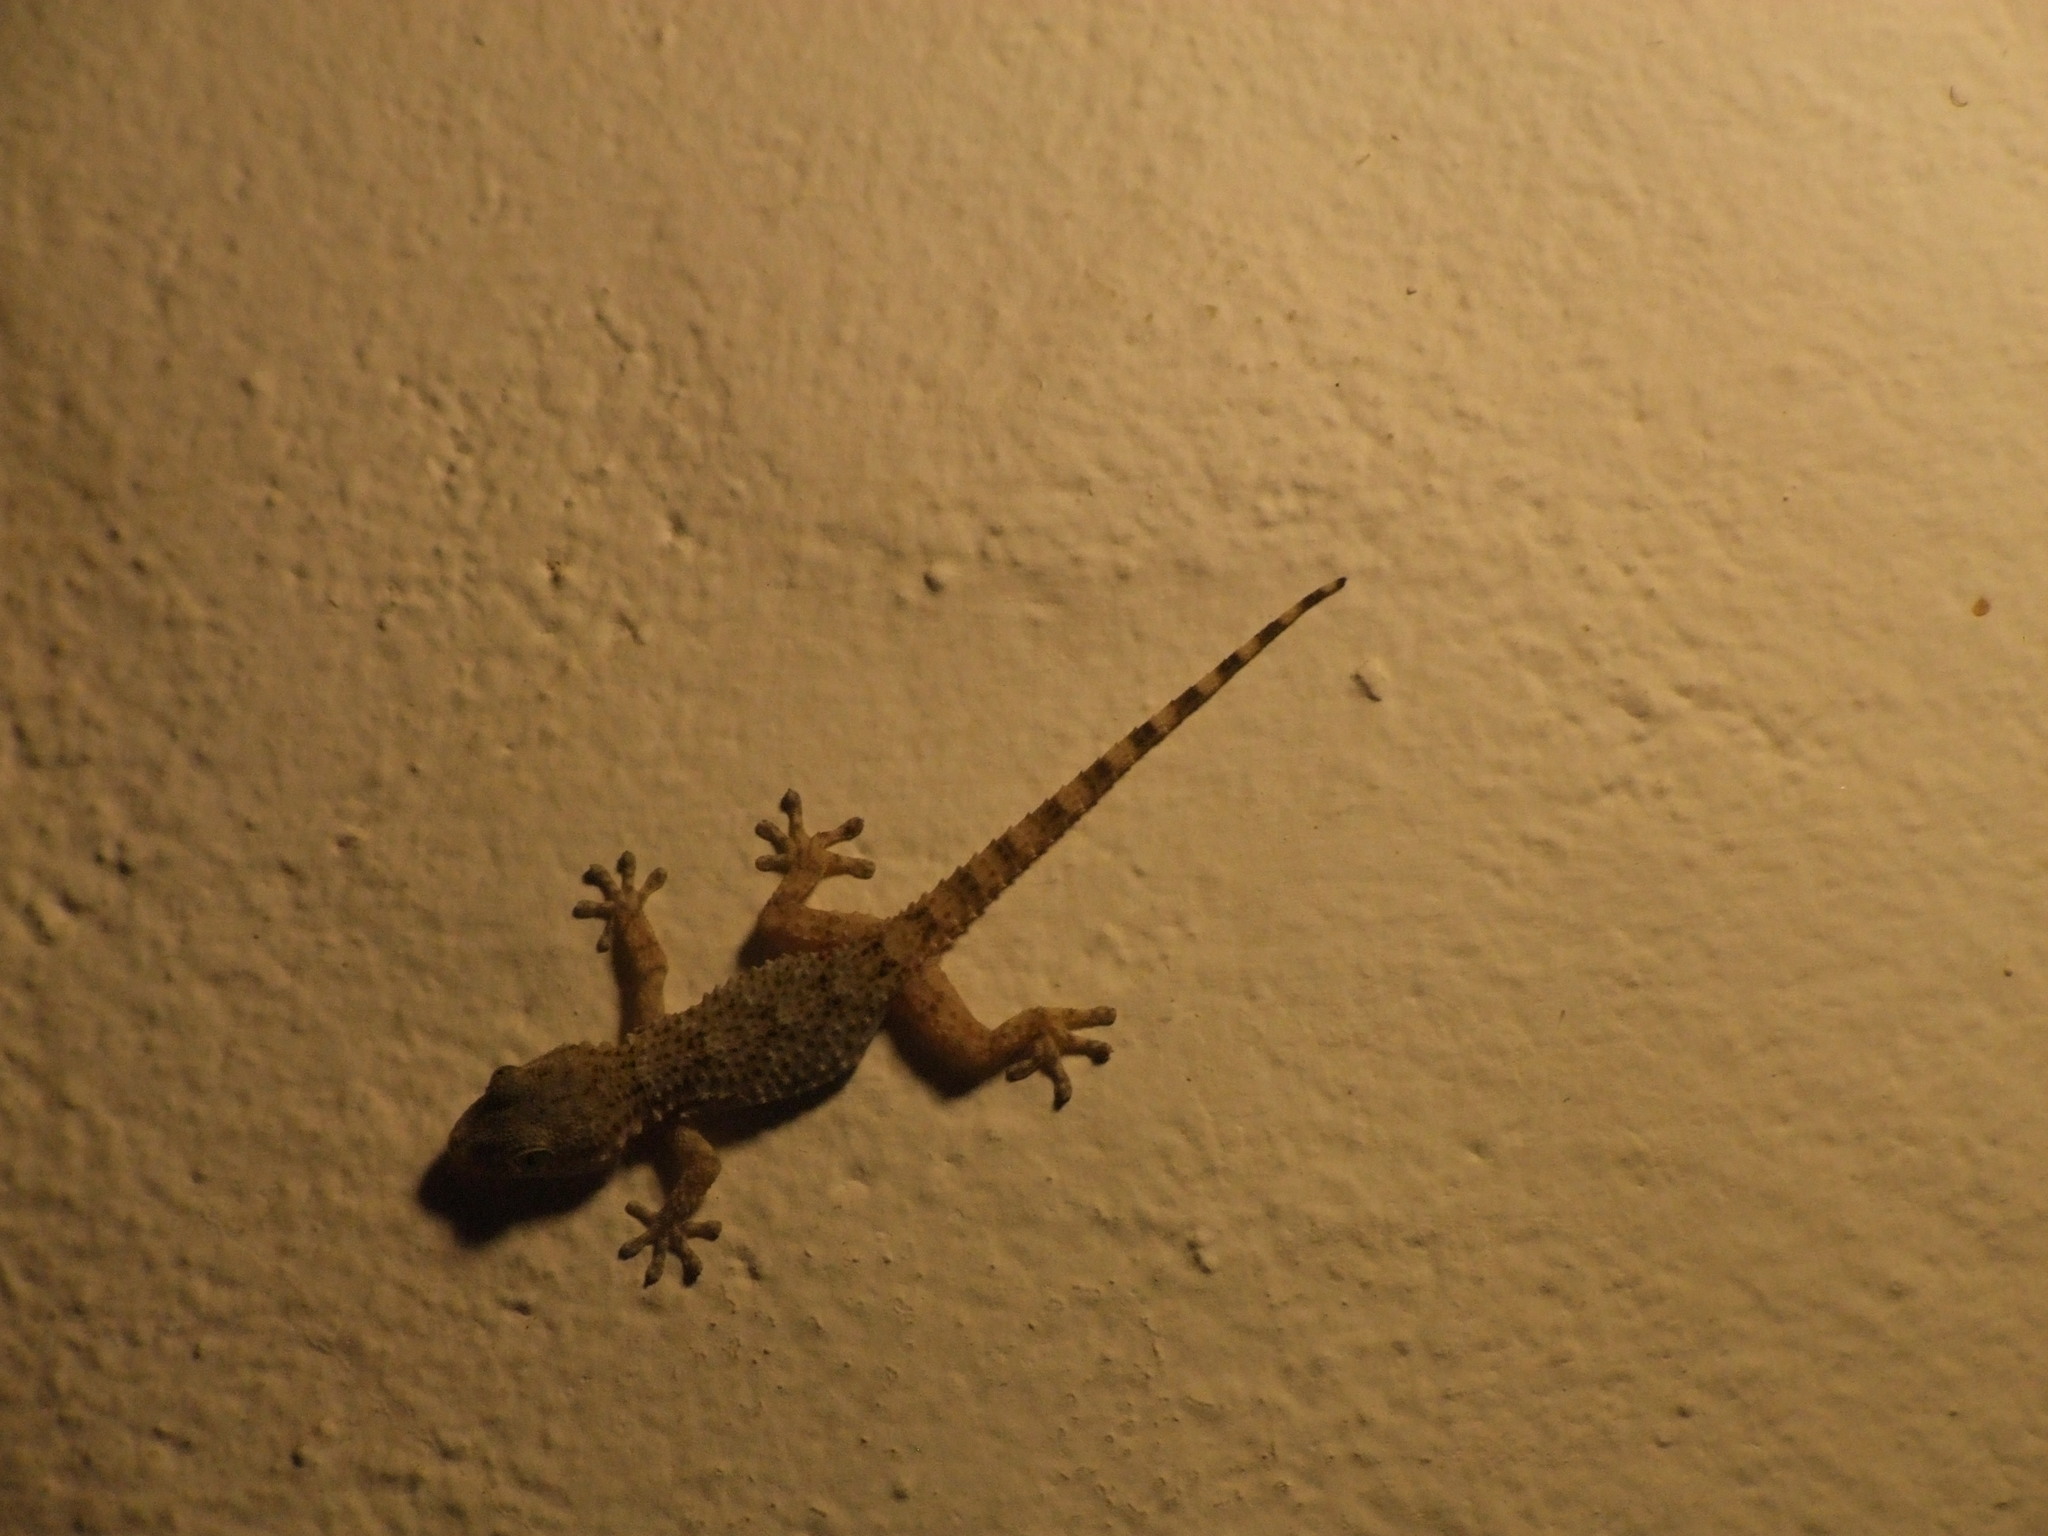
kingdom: Animalia
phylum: Chordata
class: Squamata
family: Phyllodactylidae
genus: Tarentola
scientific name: Tarentola mauritanica
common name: Moorish gecko
